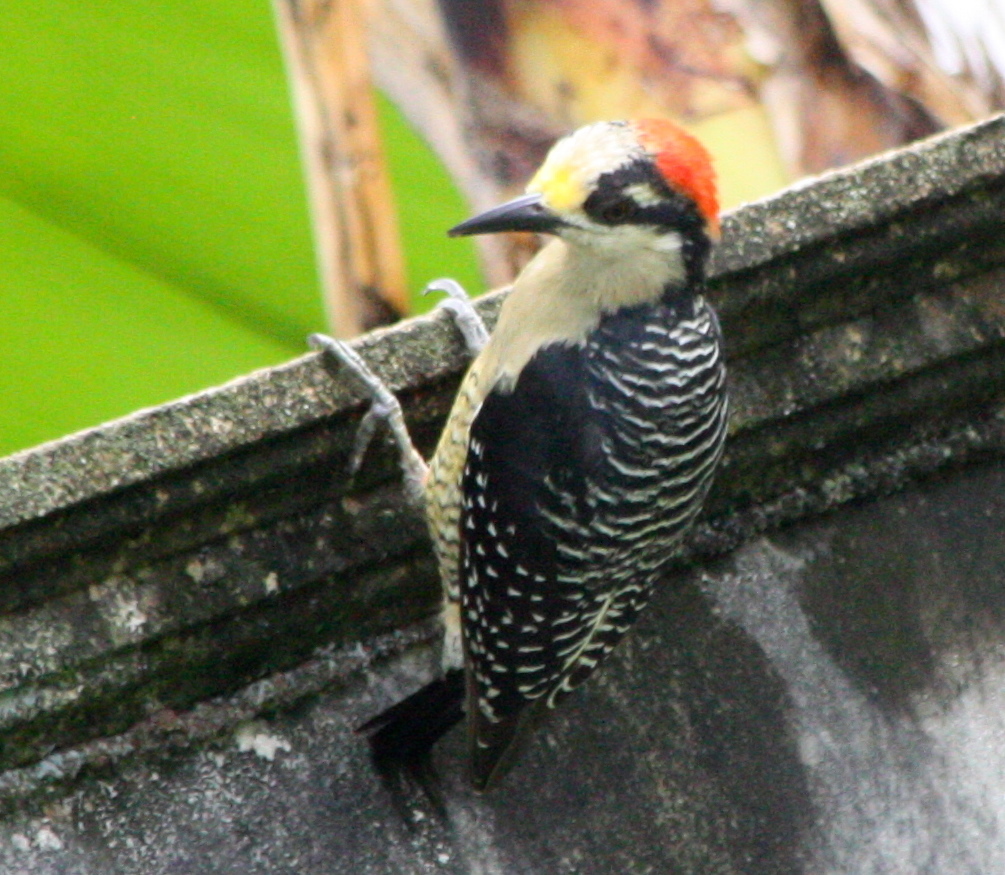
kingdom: Animalia
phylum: Chordata
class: Aves
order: Piciformes
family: Picidae
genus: Melanerpes
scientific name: Melanerpes pucherani
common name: Black-cheeked woodpecker
